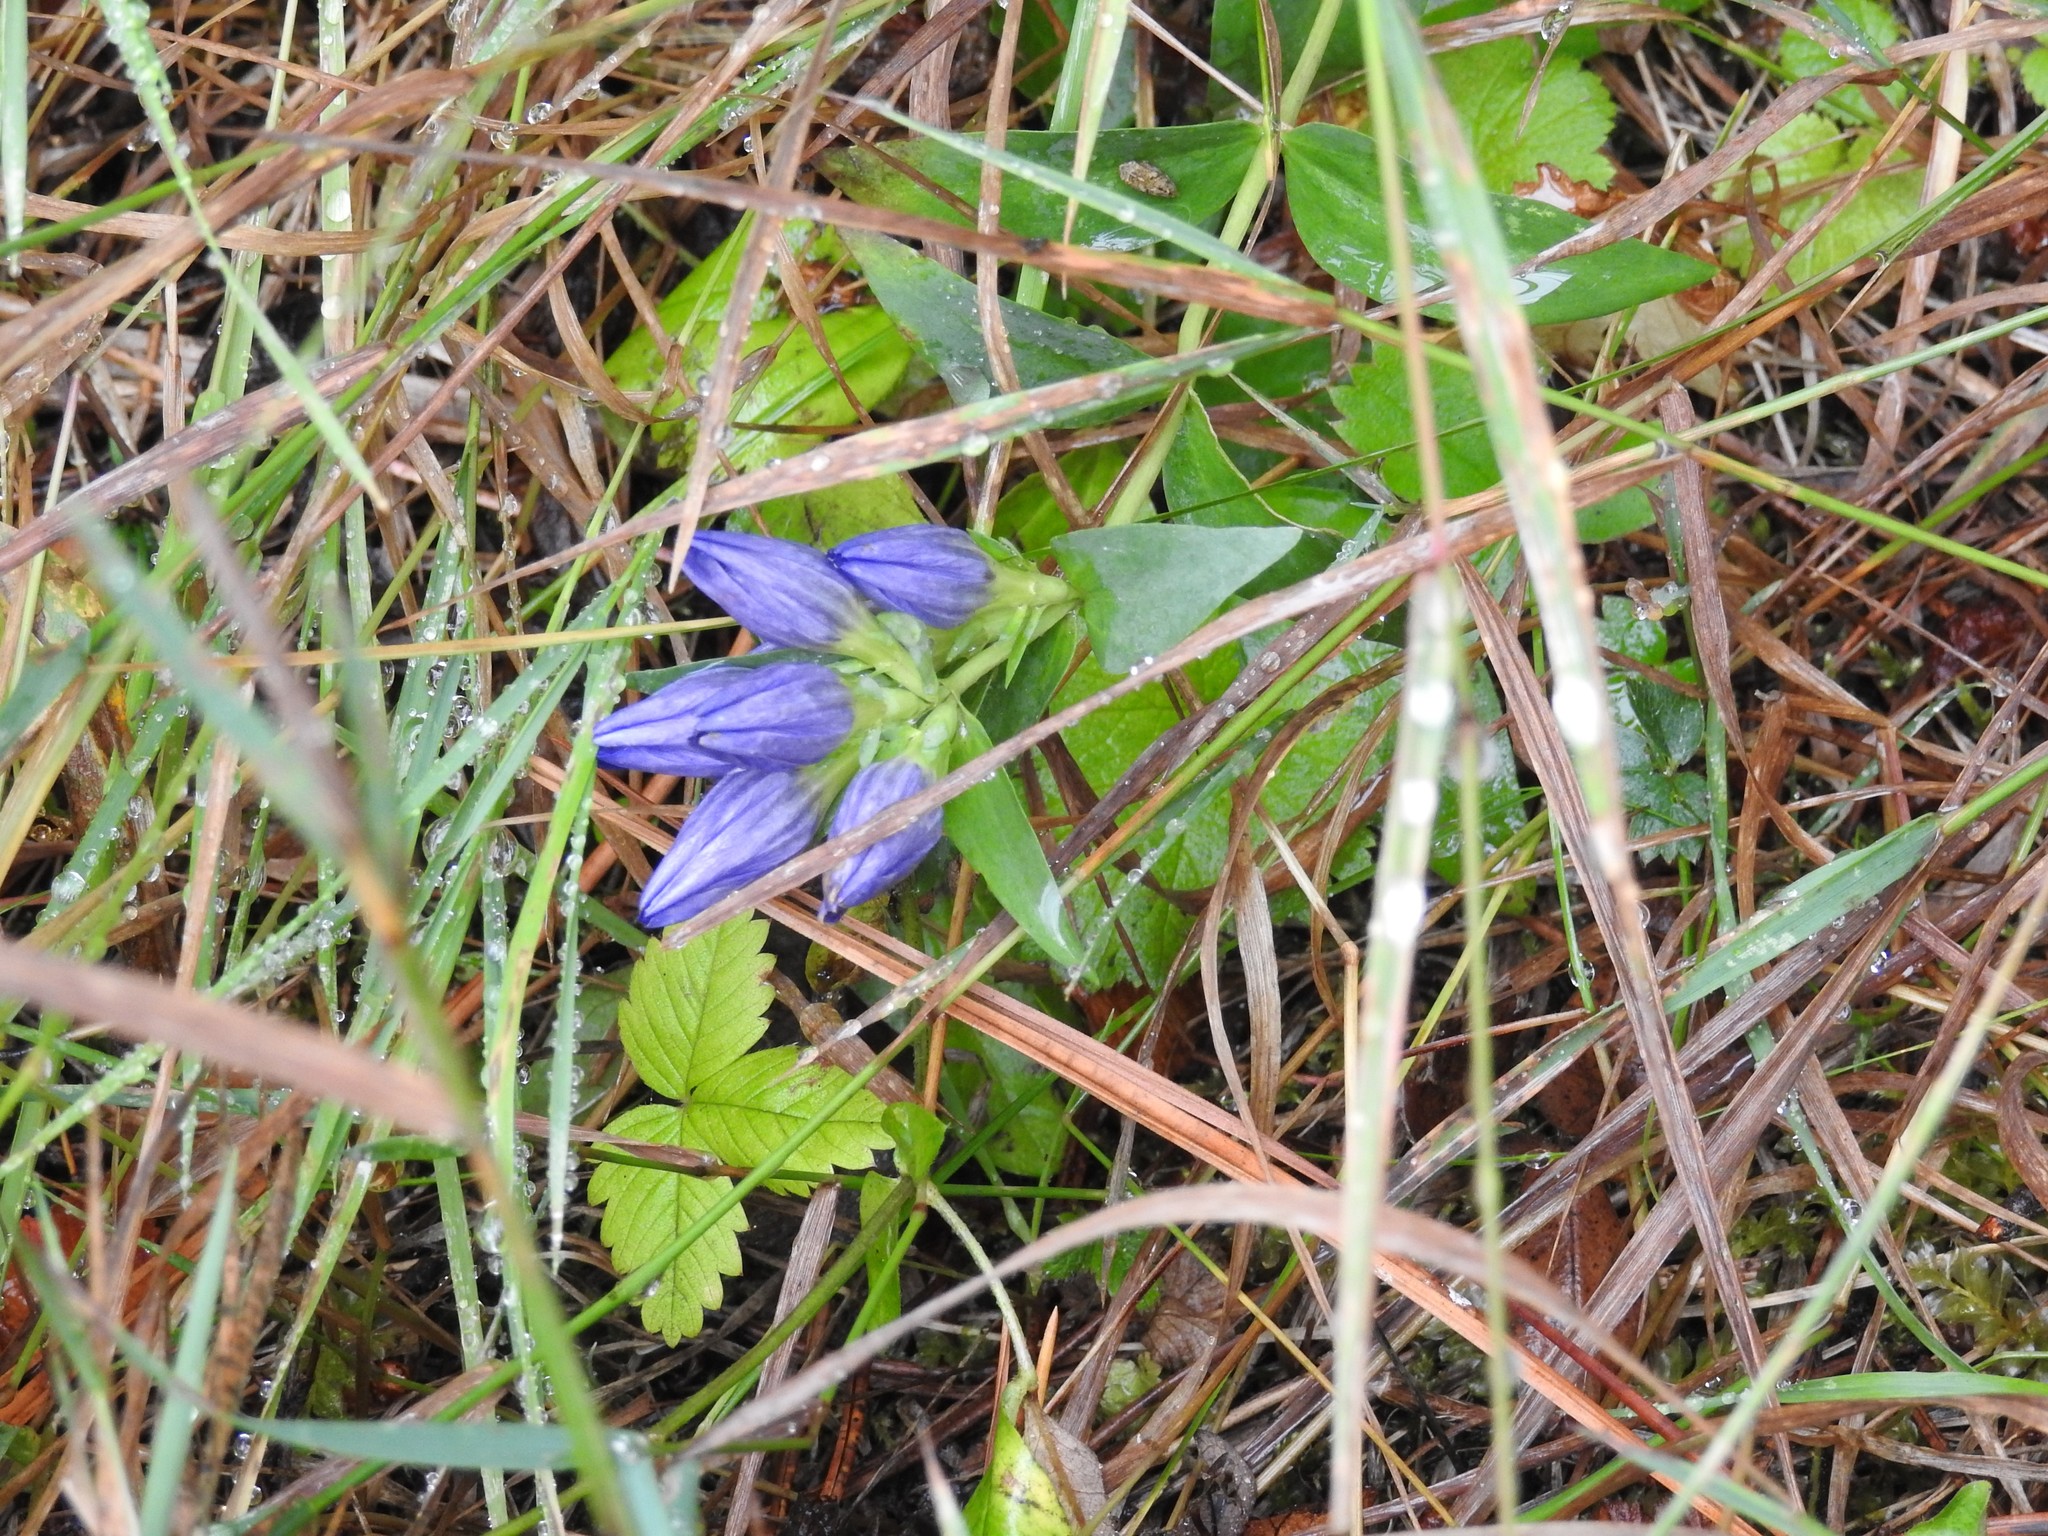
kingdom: Plantae
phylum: Tracheophyta
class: Magnoliopsida
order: Gentianales
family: Gentianaceae
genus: Gentiana
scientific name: Gentiana affinis
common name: Rocky mountain gentian
